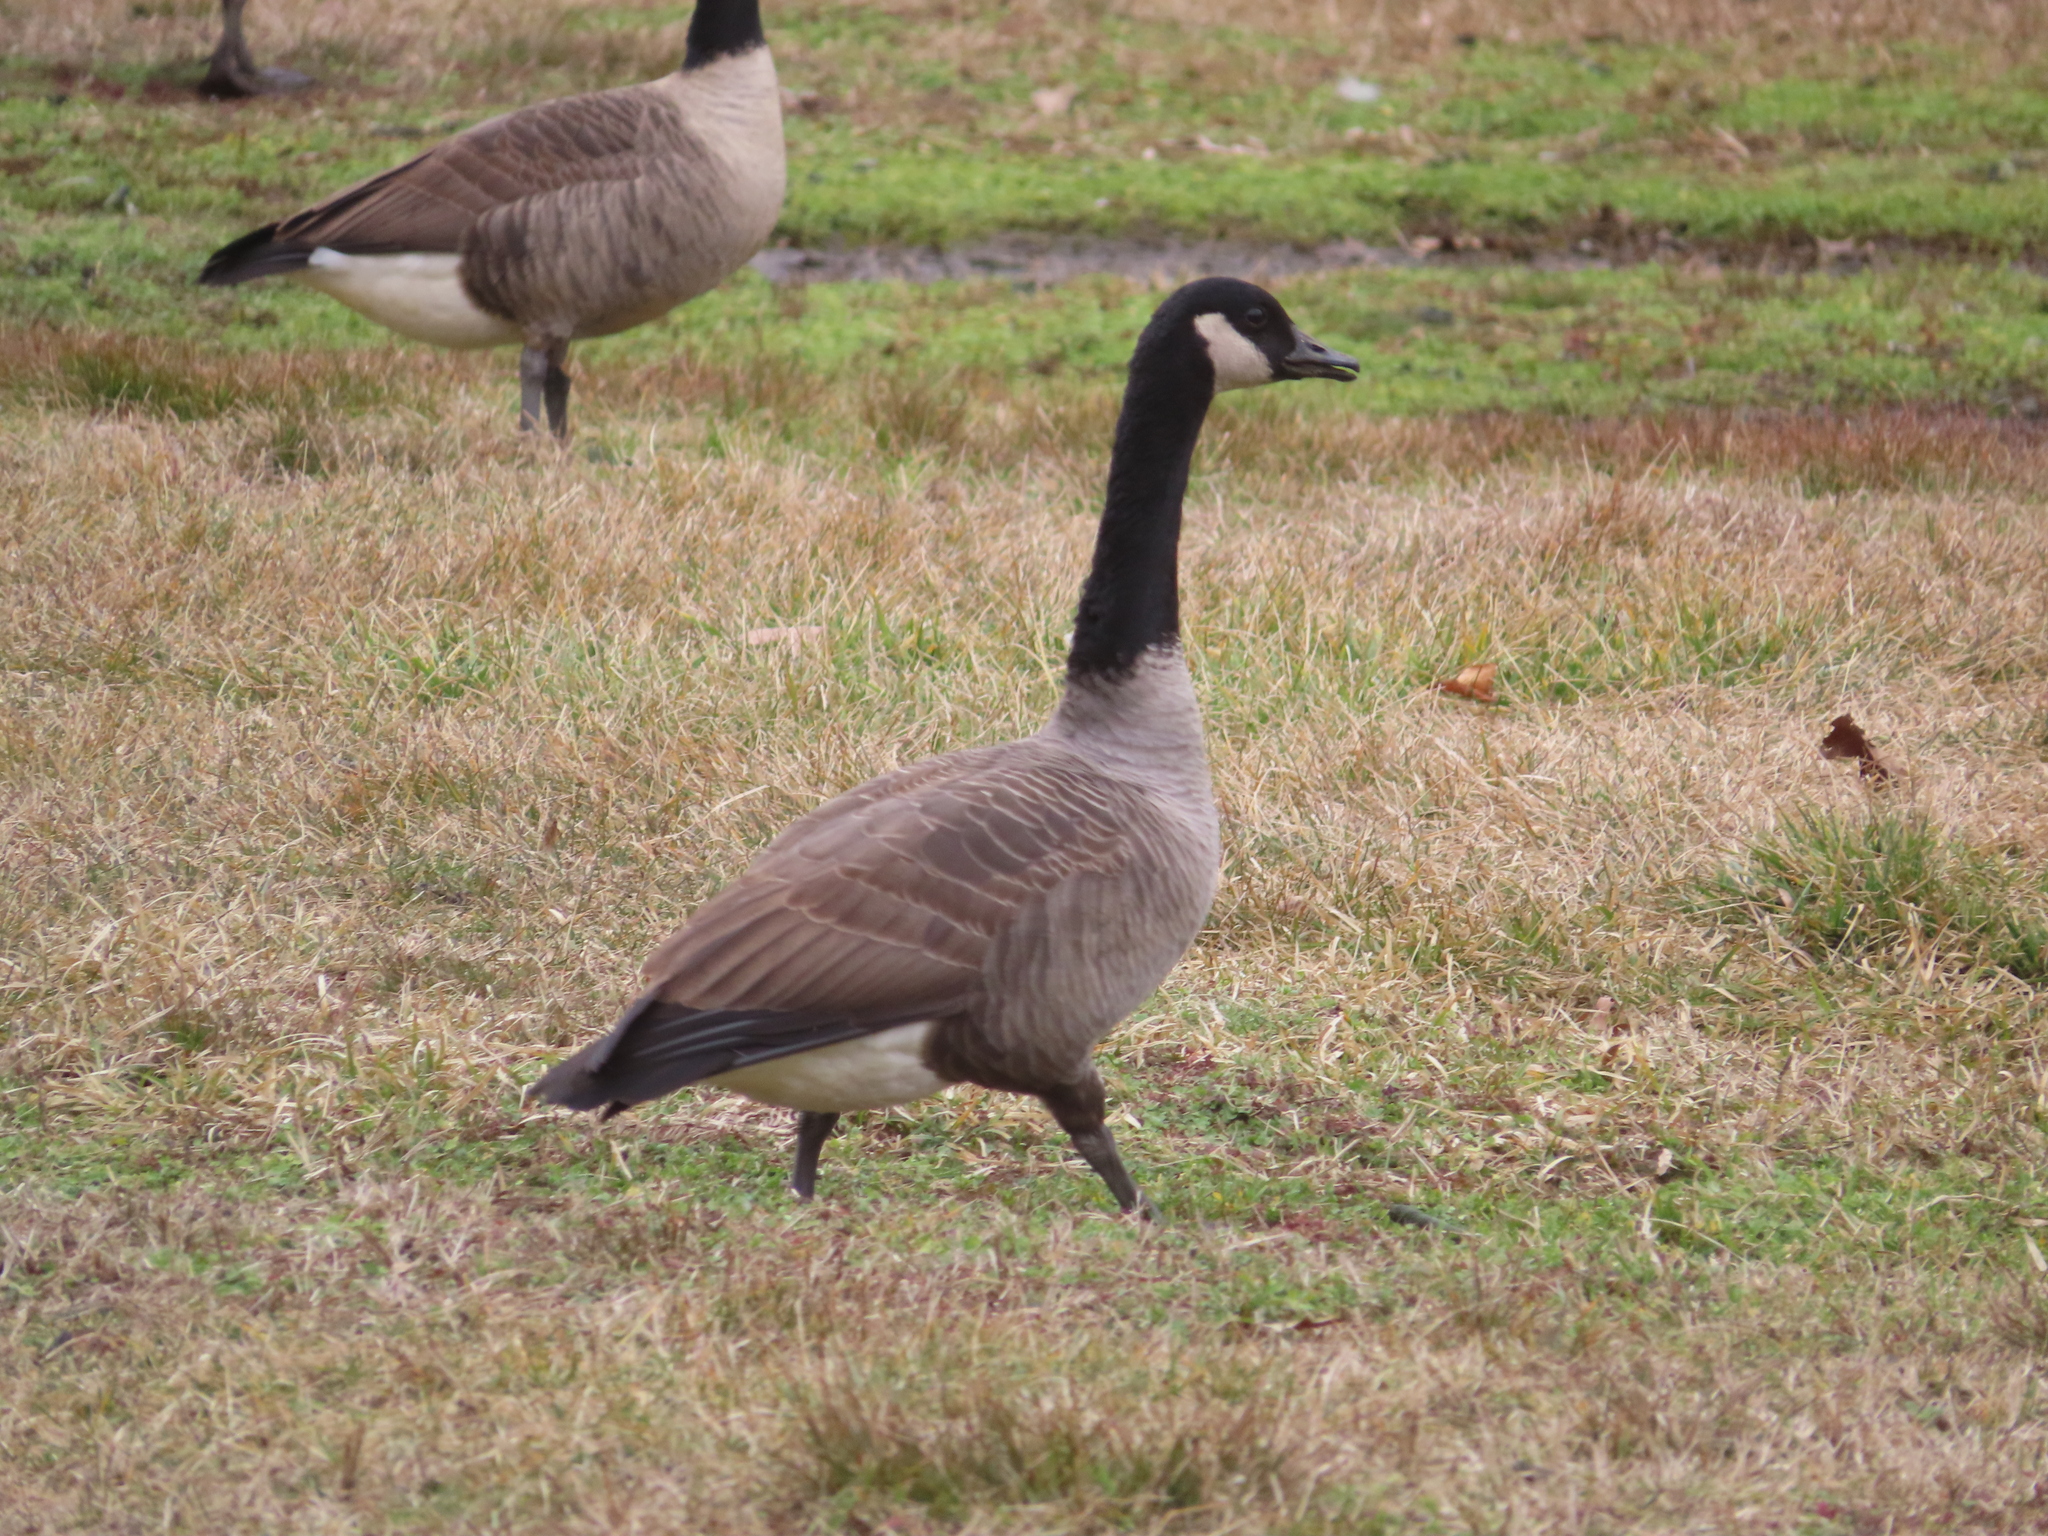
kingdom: Animalia
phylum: Chordata
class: Aves
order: Anseriformes
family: Anatidae
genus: Branta
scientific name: Branta canadensis
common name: Canada goose
